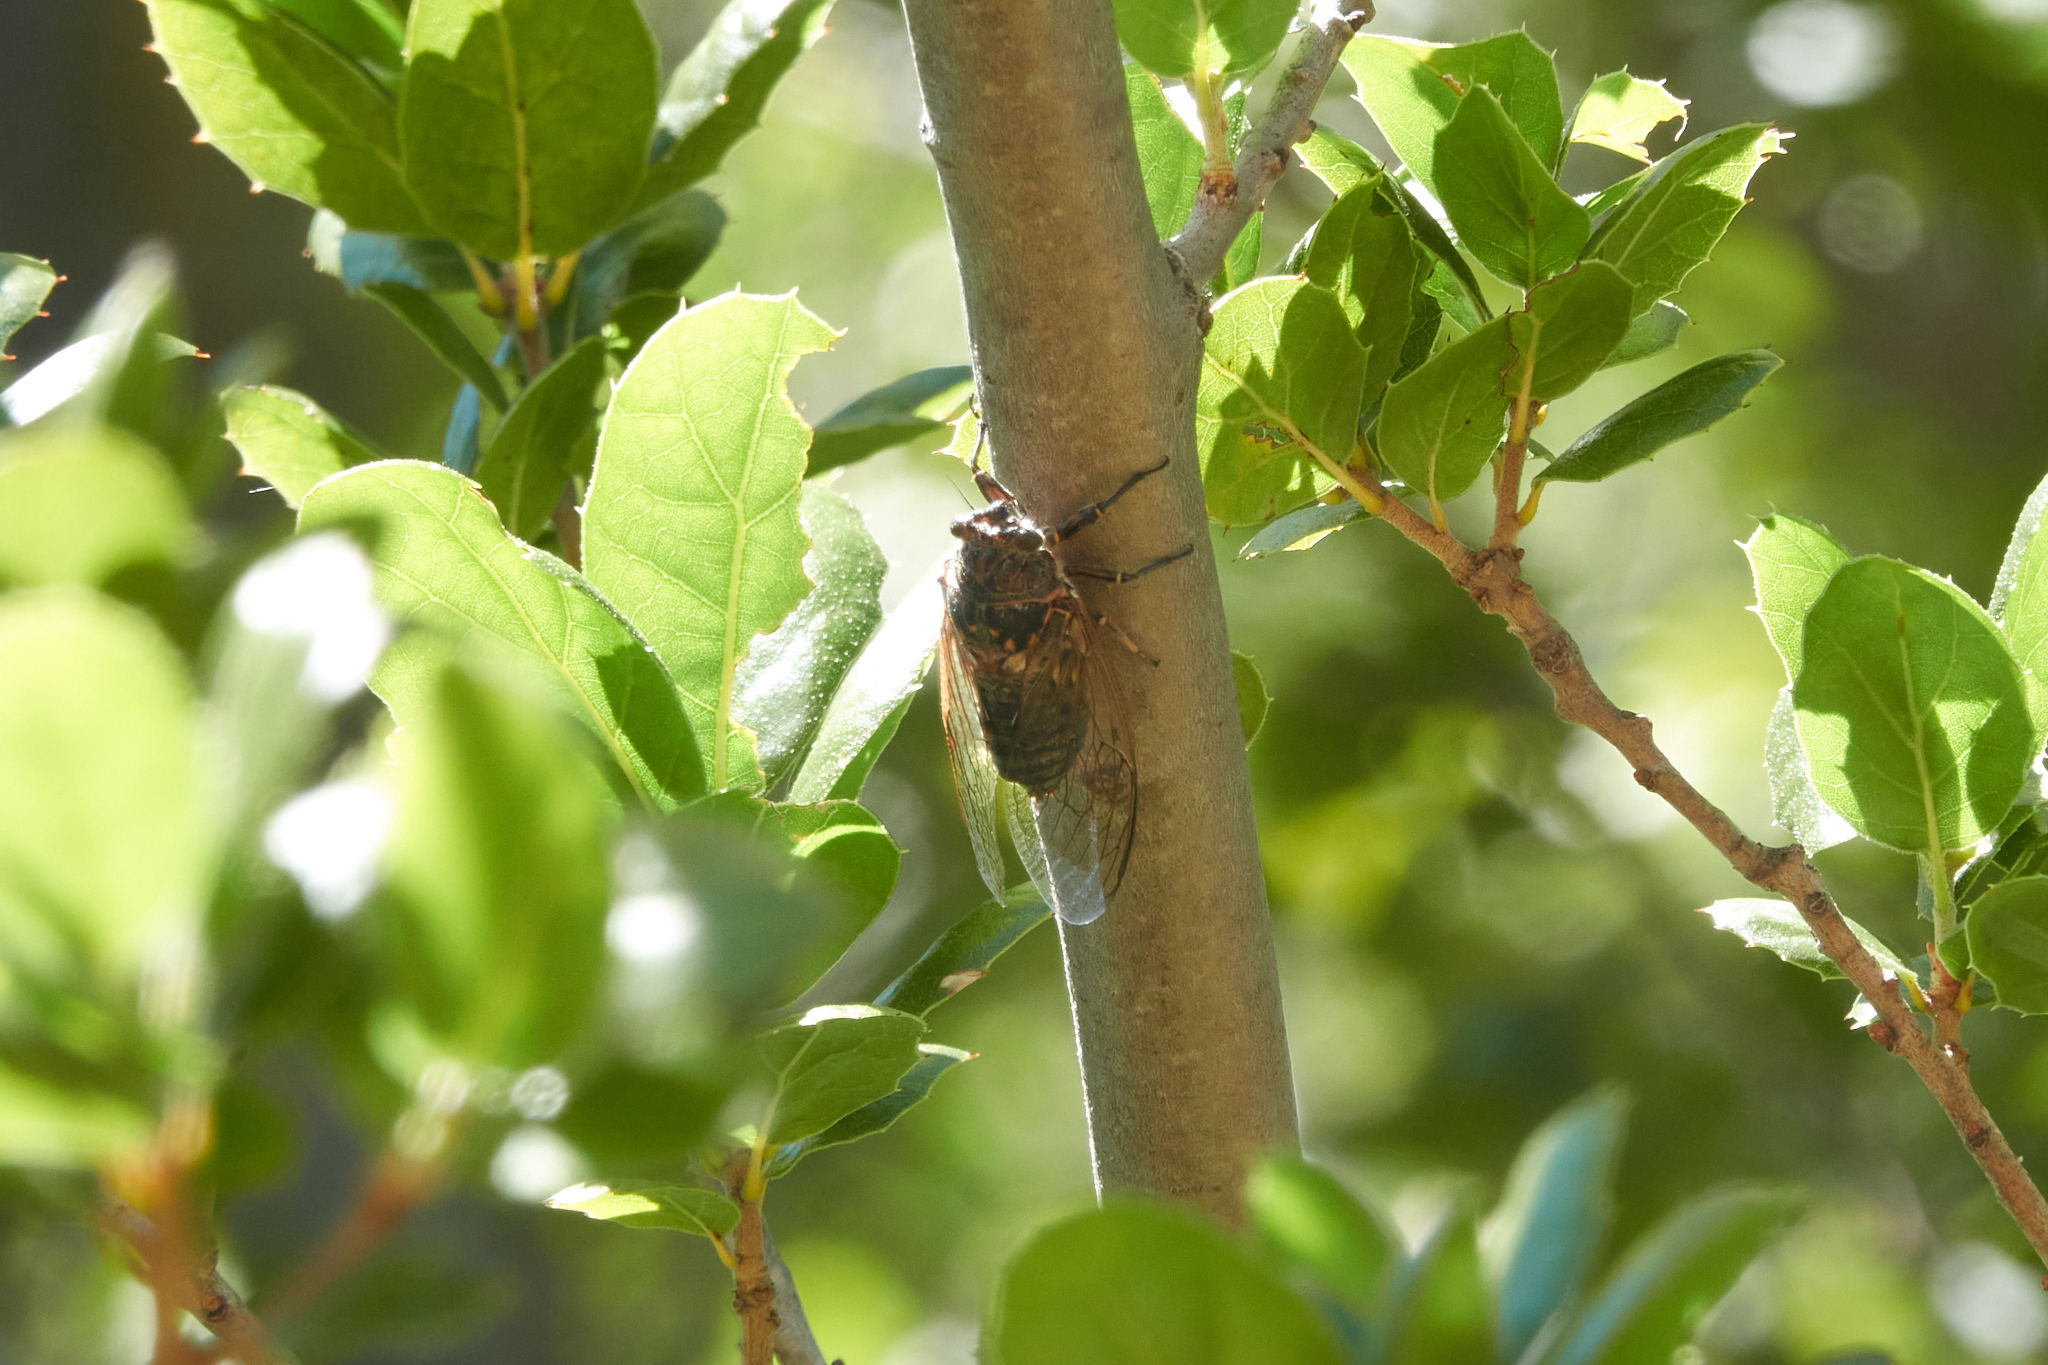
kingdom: Animalia
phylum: Arthropoda
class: Insecta
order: Hemiptera
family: Cicadidae
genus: Okanagana
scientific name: Okanagana canescens
